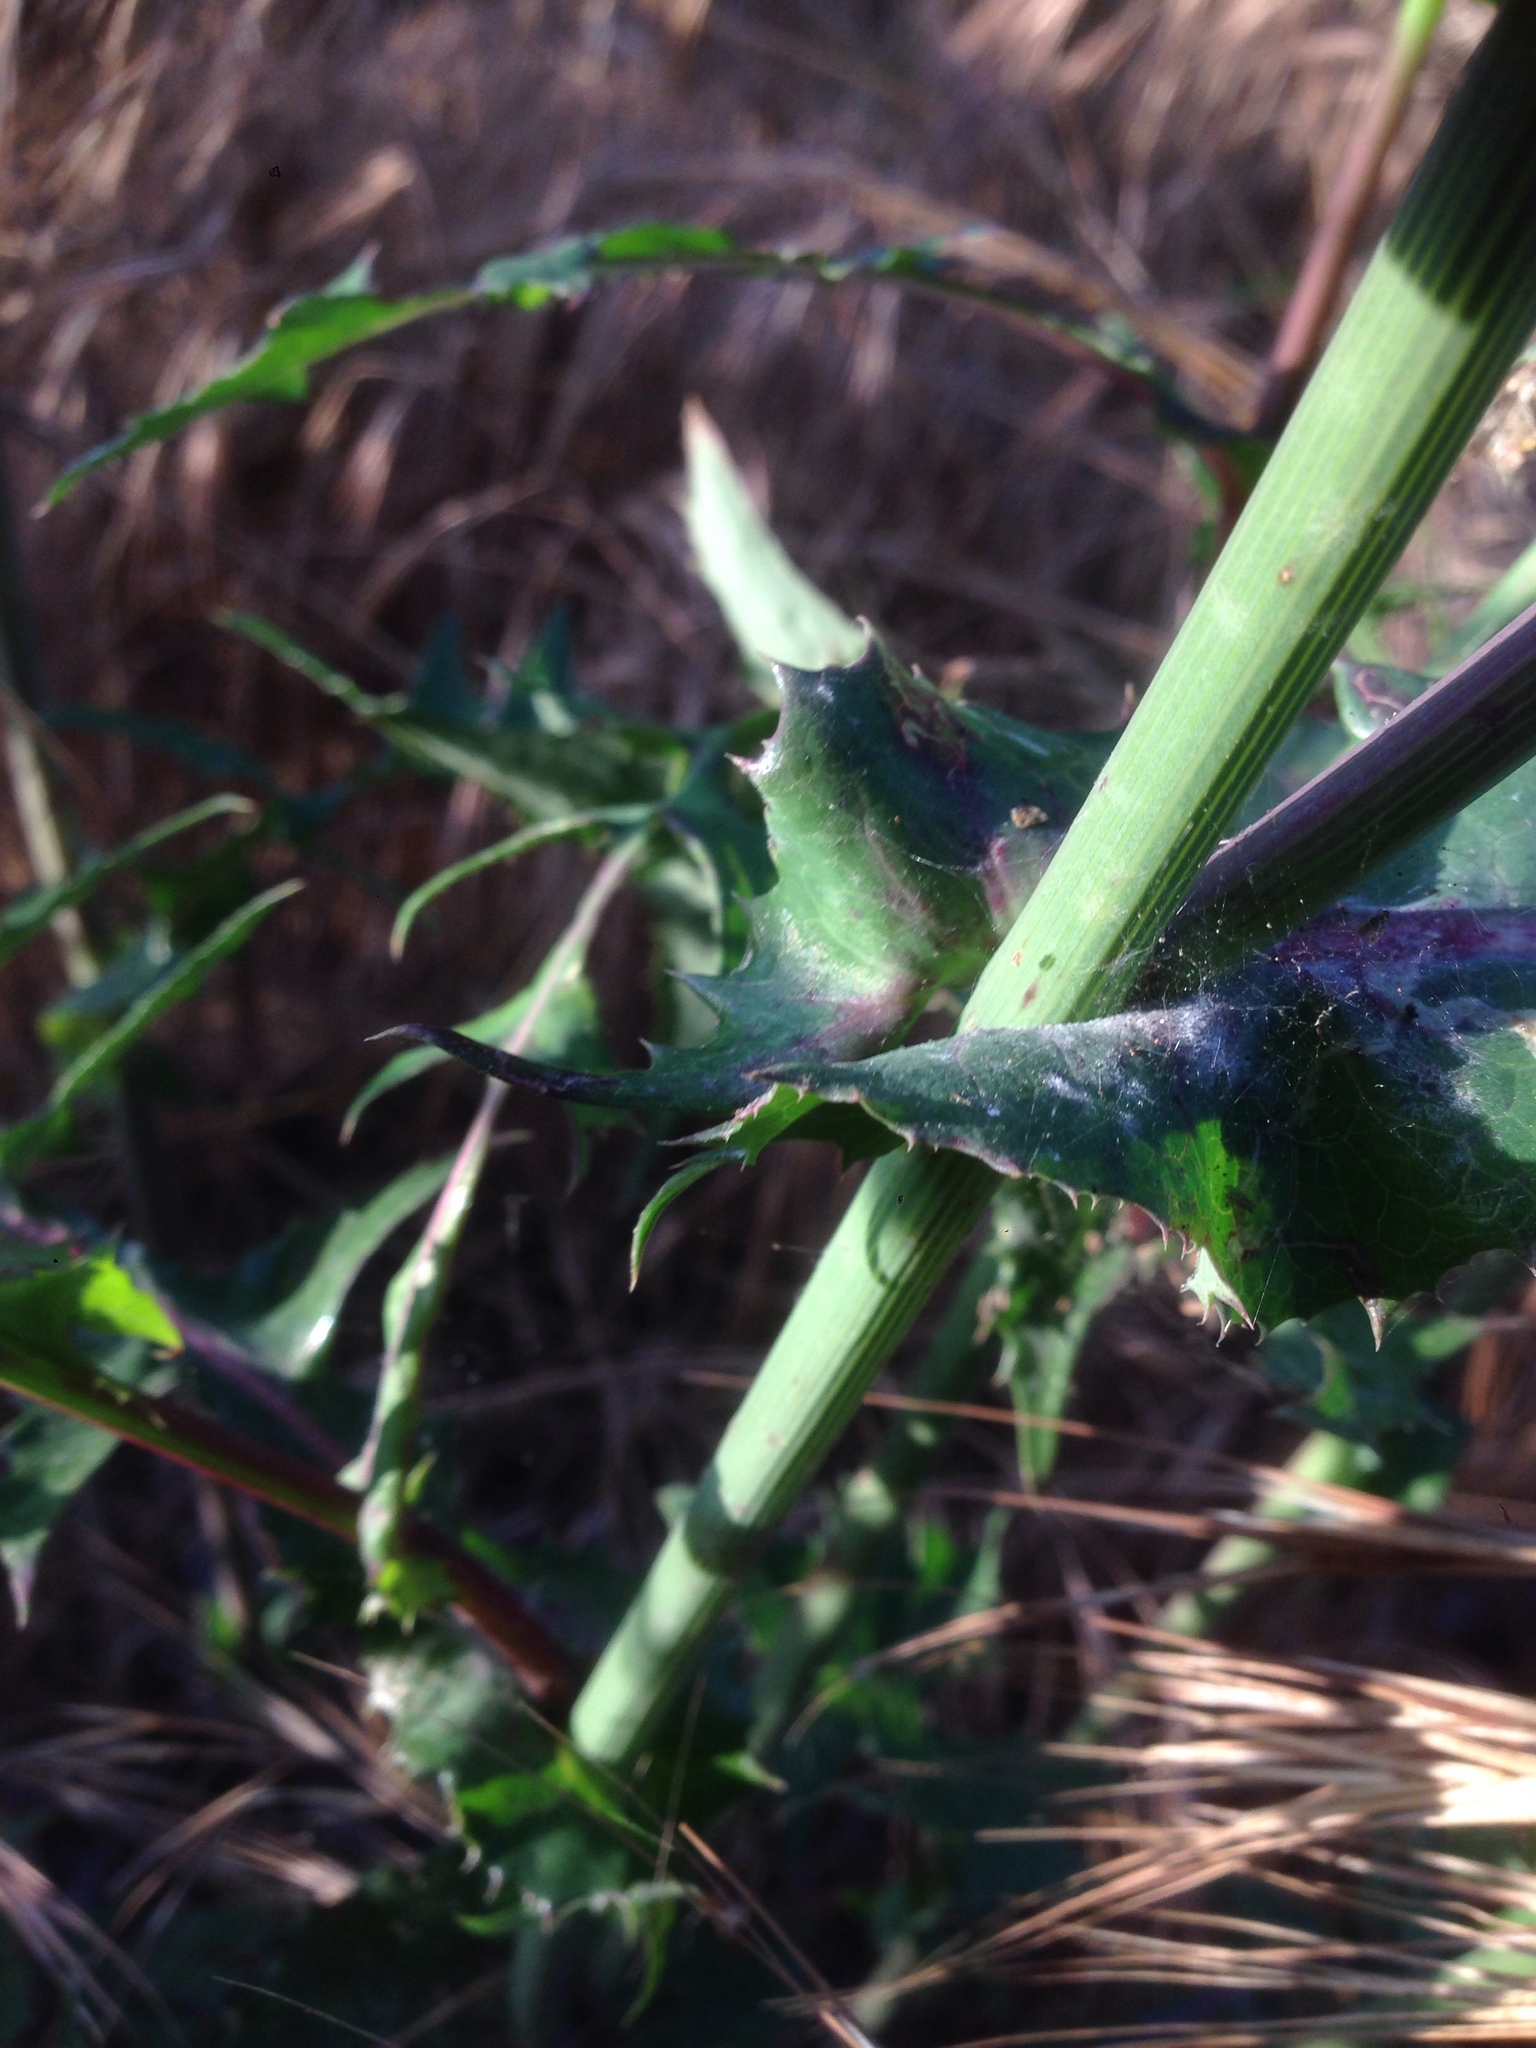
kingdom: Plantae
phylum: Tracheophyta
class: Magnoliopsida
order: Asterales
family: Asteraceae
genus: Sonchus
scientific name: Sonchus oleraceus
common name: Common sowthistle
